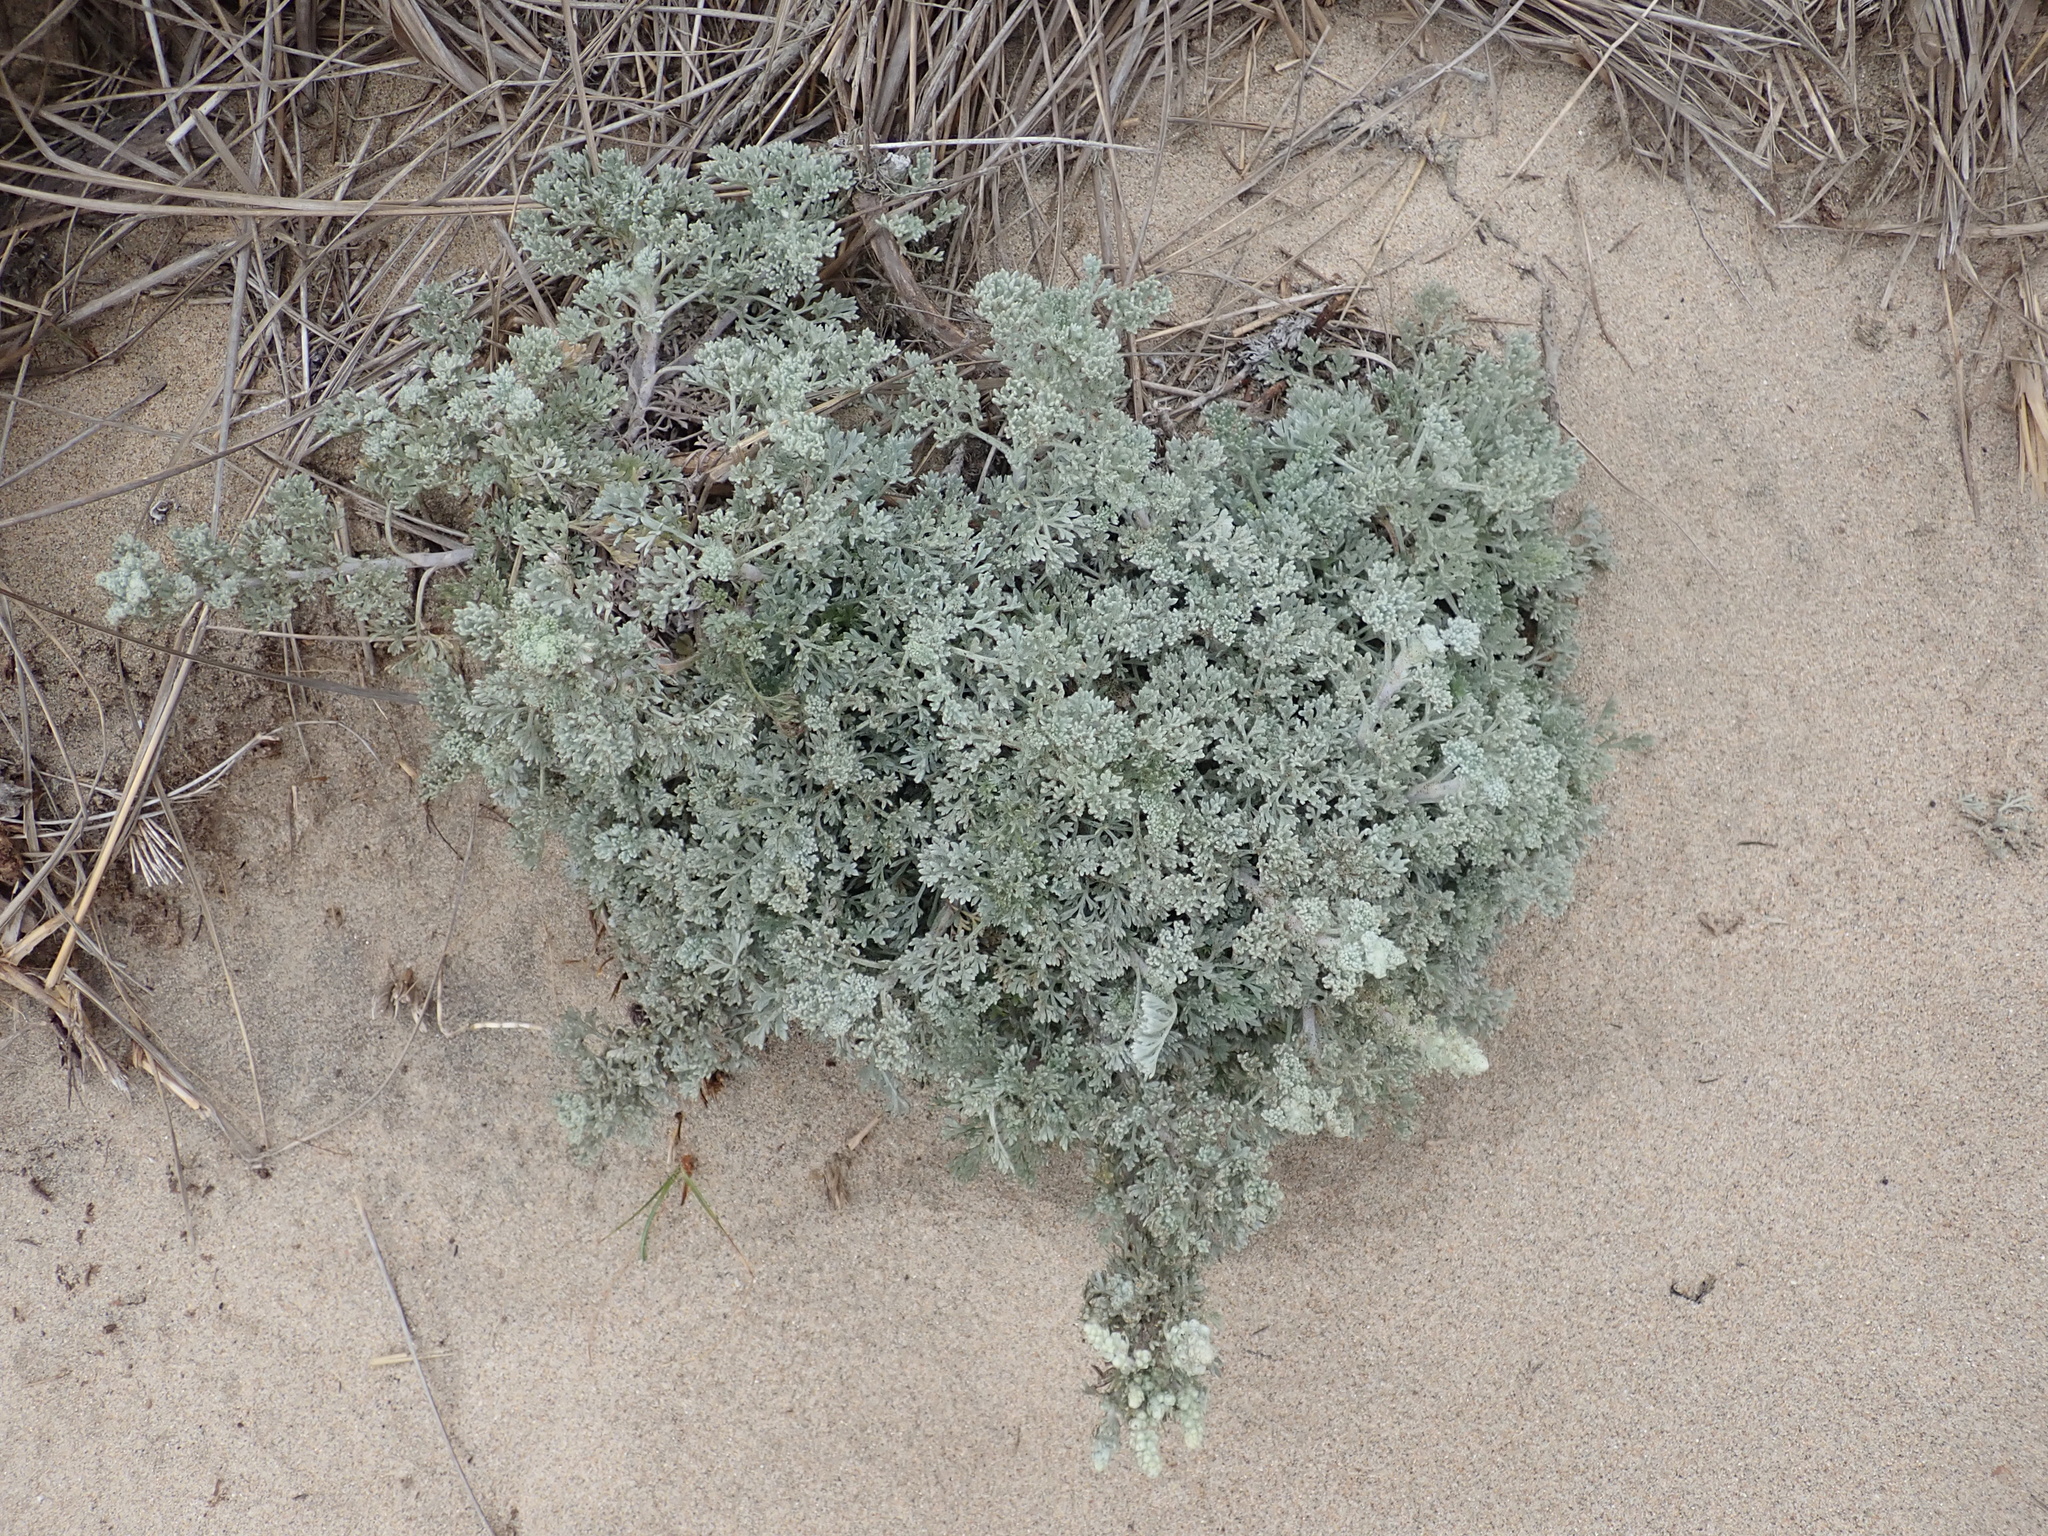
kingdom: Plantae
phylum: Tracheophyta
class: Magnoliopsida
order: Asterales
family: Asteraceae
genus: Artemisia
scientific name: Artemisia pycnocephala
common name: Coastal sagewort
